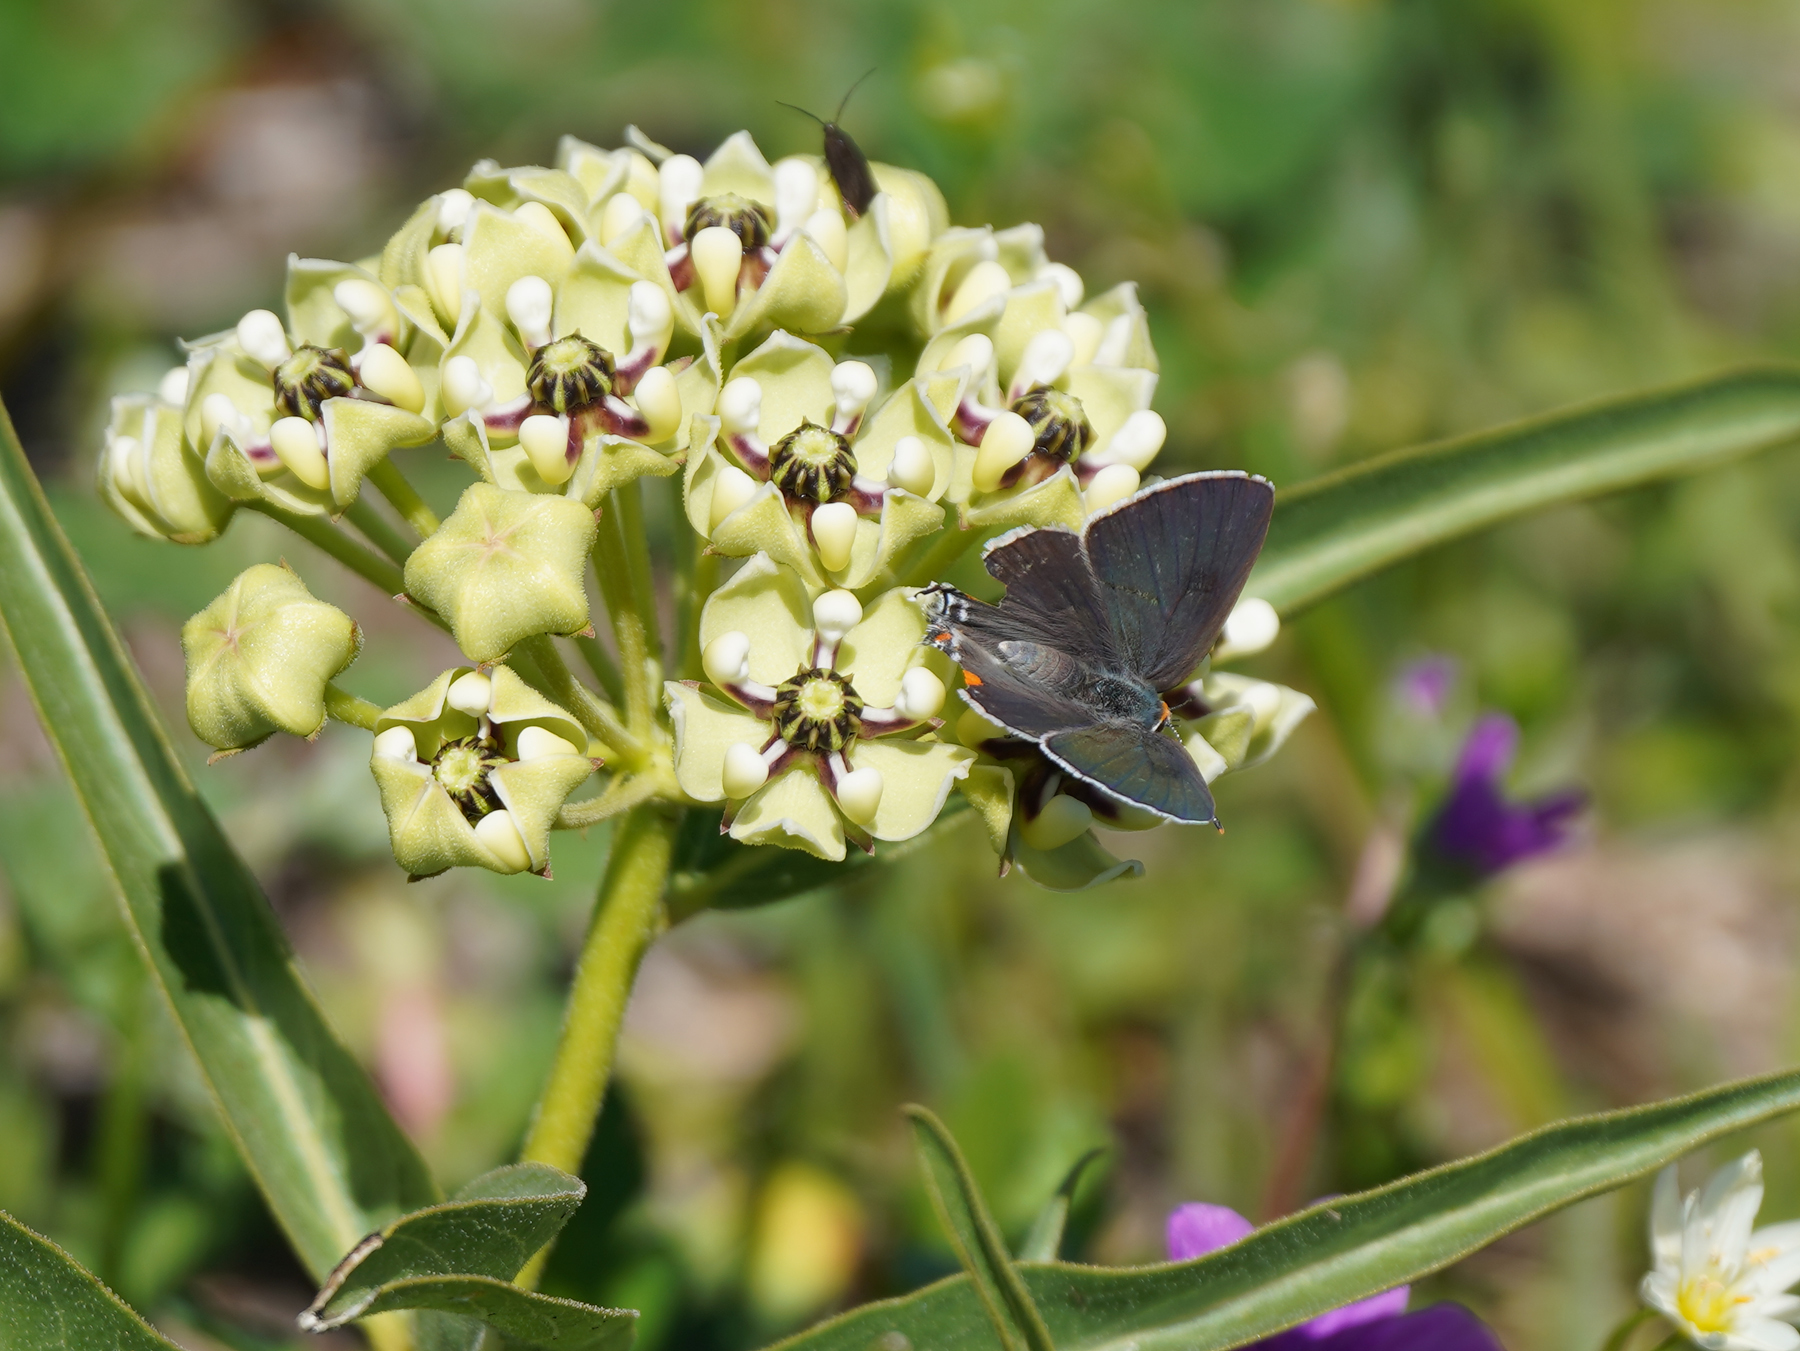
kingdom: Animalia
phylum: Arthropoda
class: Insecta
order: Lepidoptera
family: Lycaenidae
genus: Strymon
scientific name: Strymon melinus
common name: Gray hairstreak
